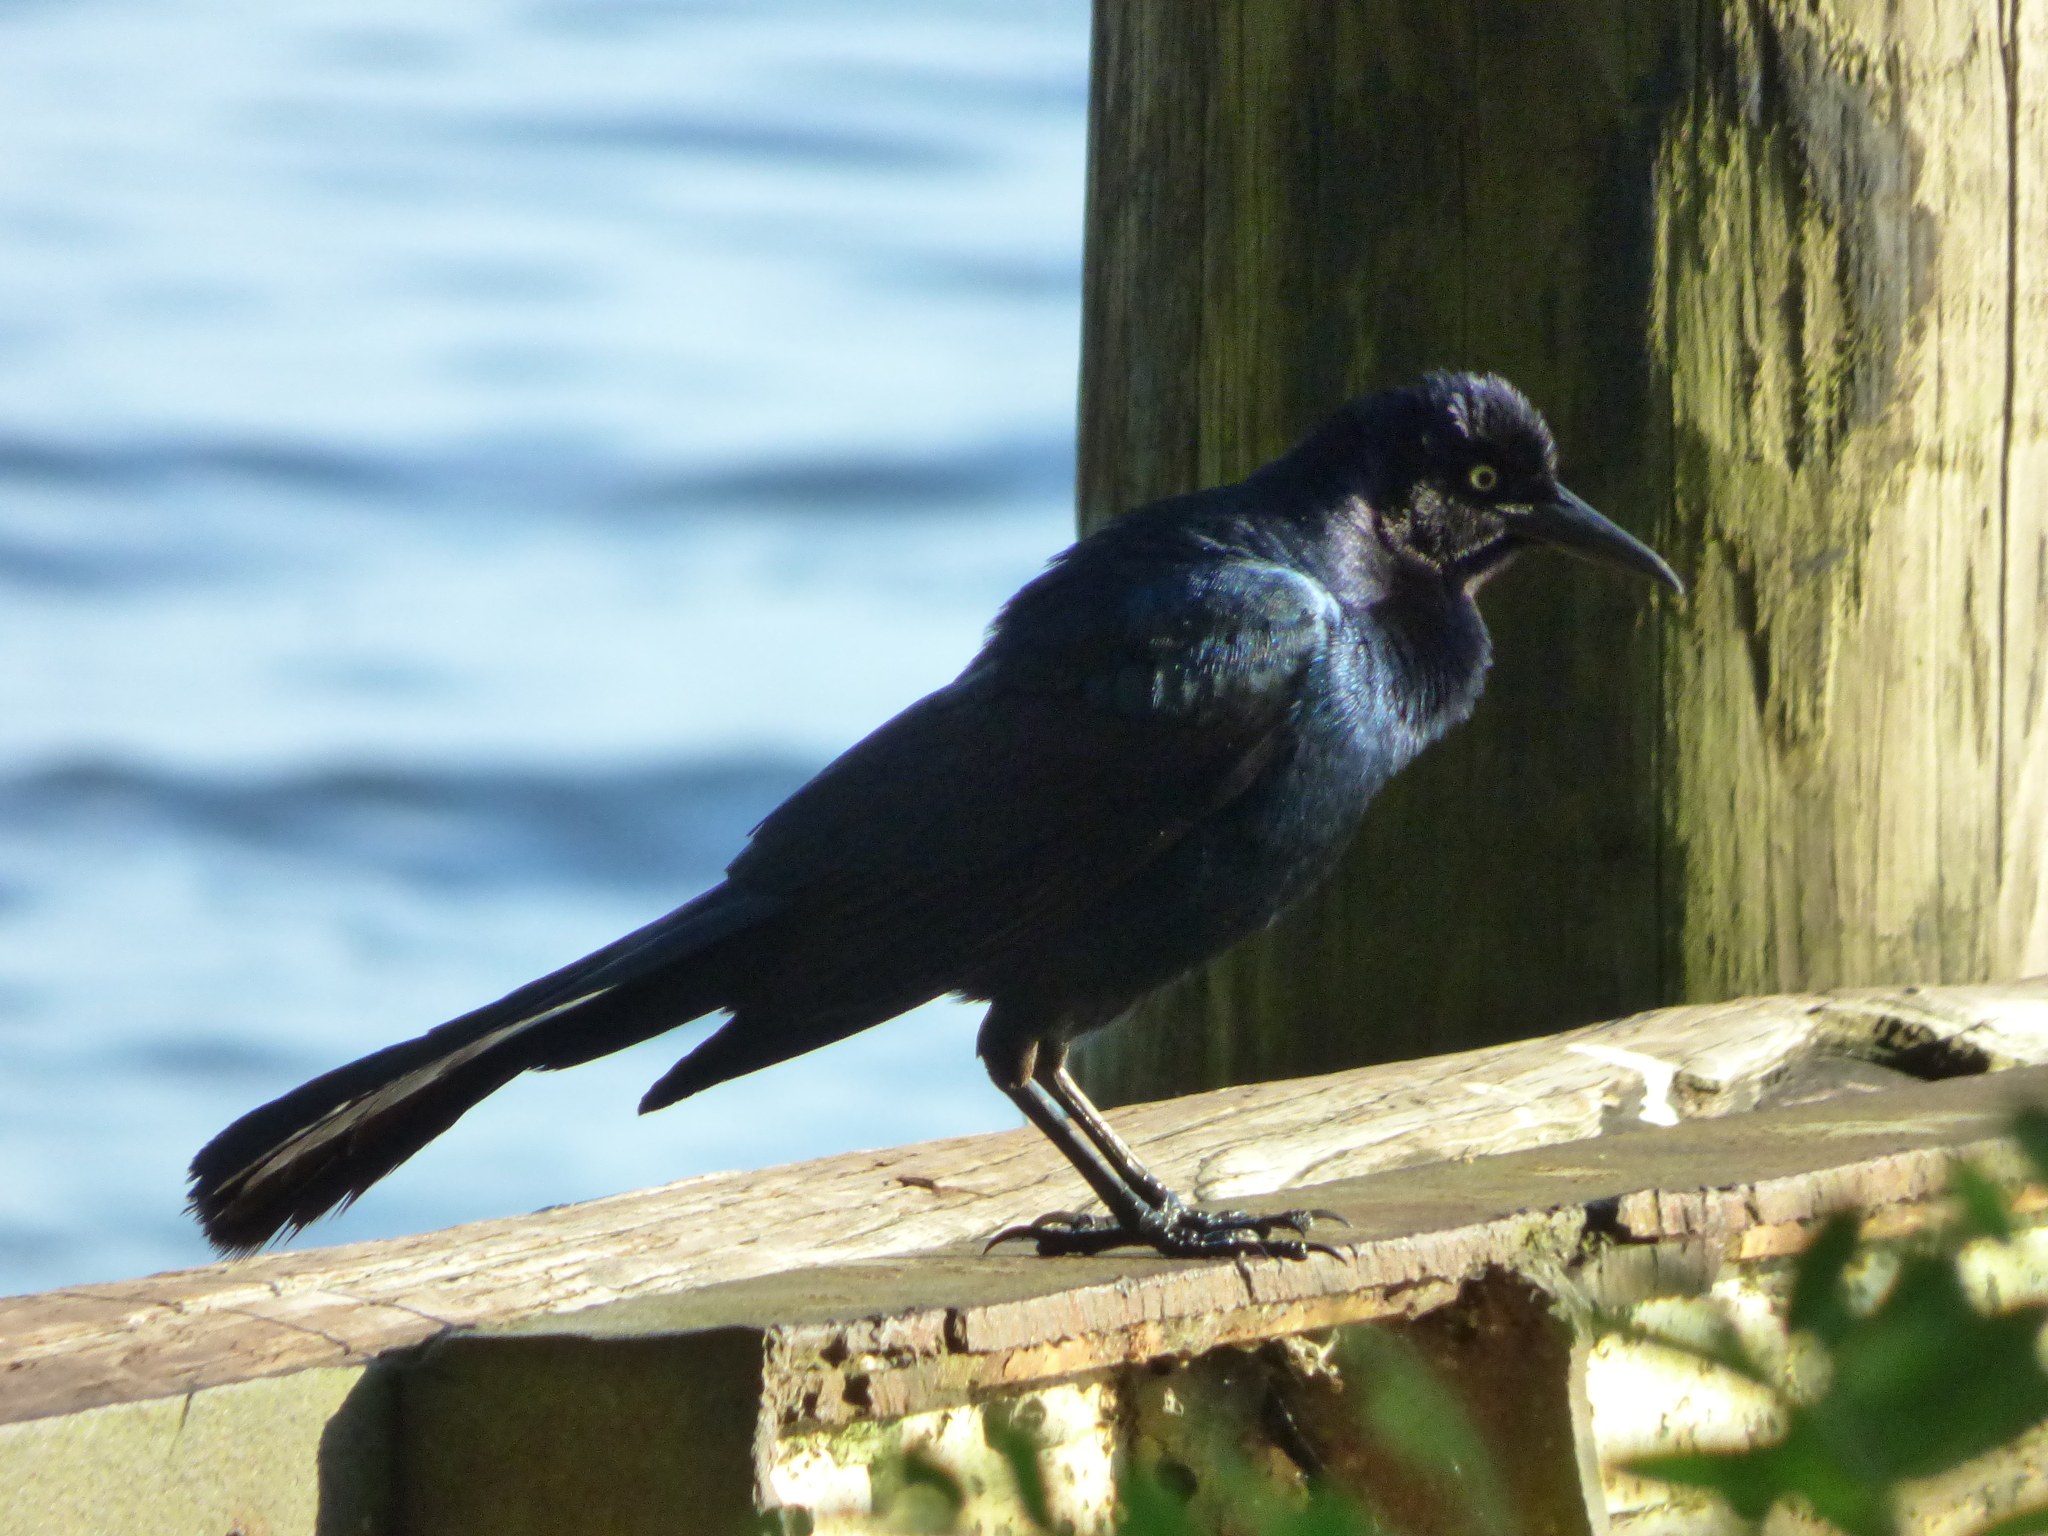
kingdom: Animalia
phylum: Chordata
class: Aves
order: Passeriformes
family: Icteridae
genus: Quiscalus
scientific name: Quiscalus major
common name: Boat-tailed grackle
